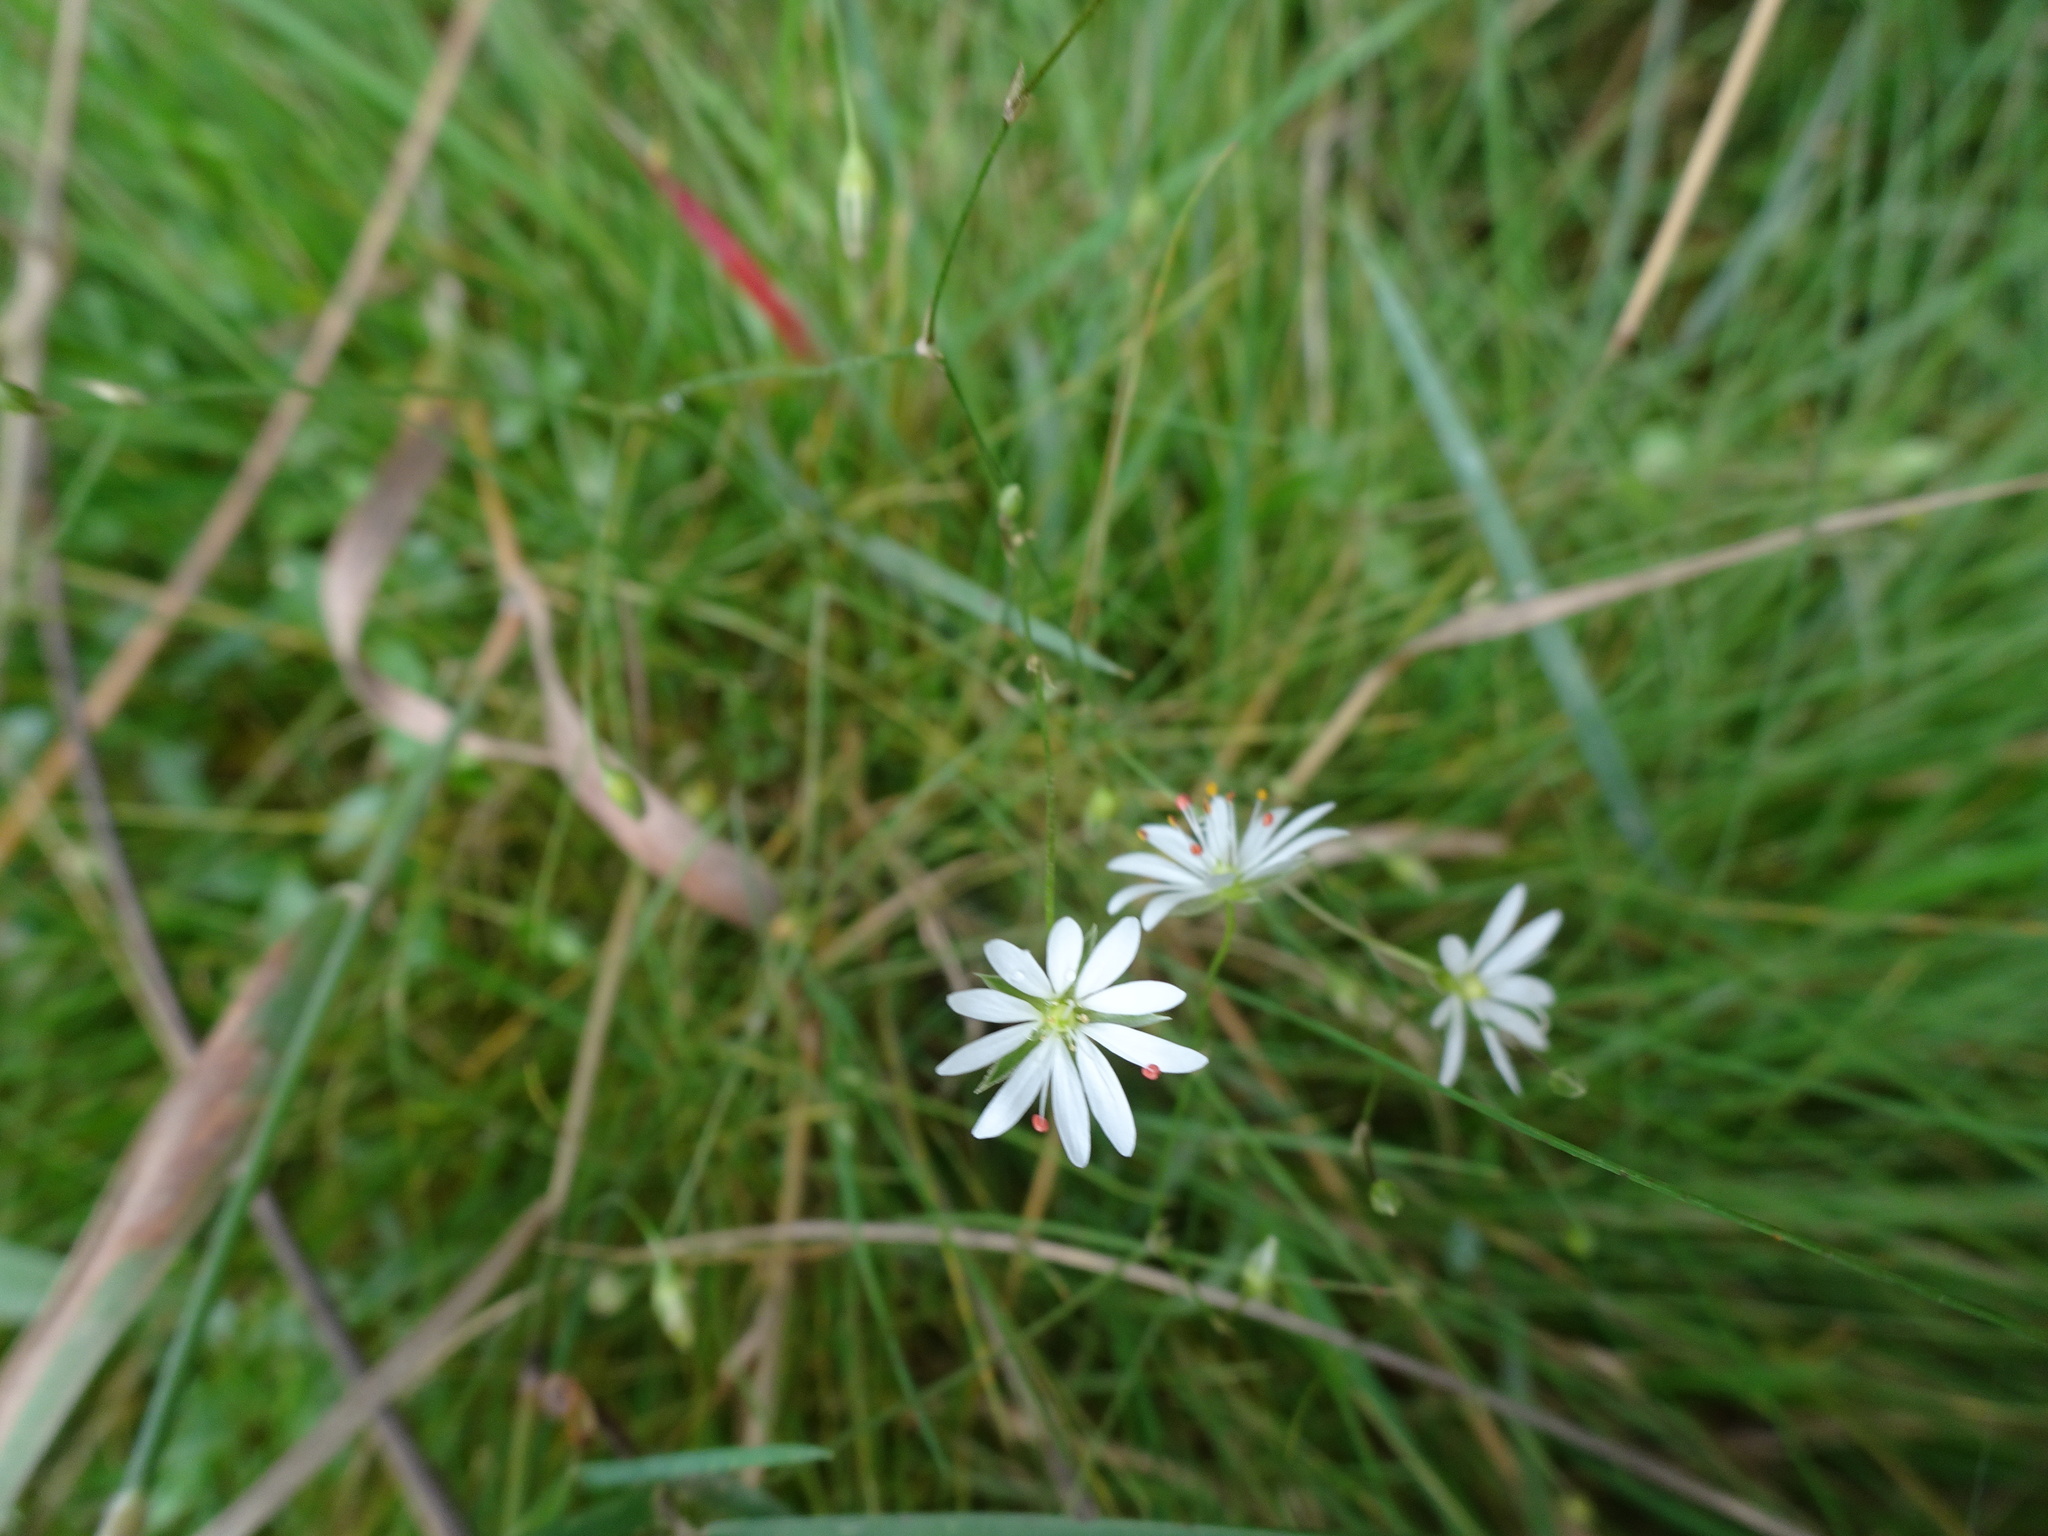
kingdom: Plantae
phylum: Tracheophyta
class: Magnoliopsida
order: Caryophyllales
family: Caryophyllaceae
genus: Stellaria
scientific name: Stellaria graminea
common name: Grass-like starwort
